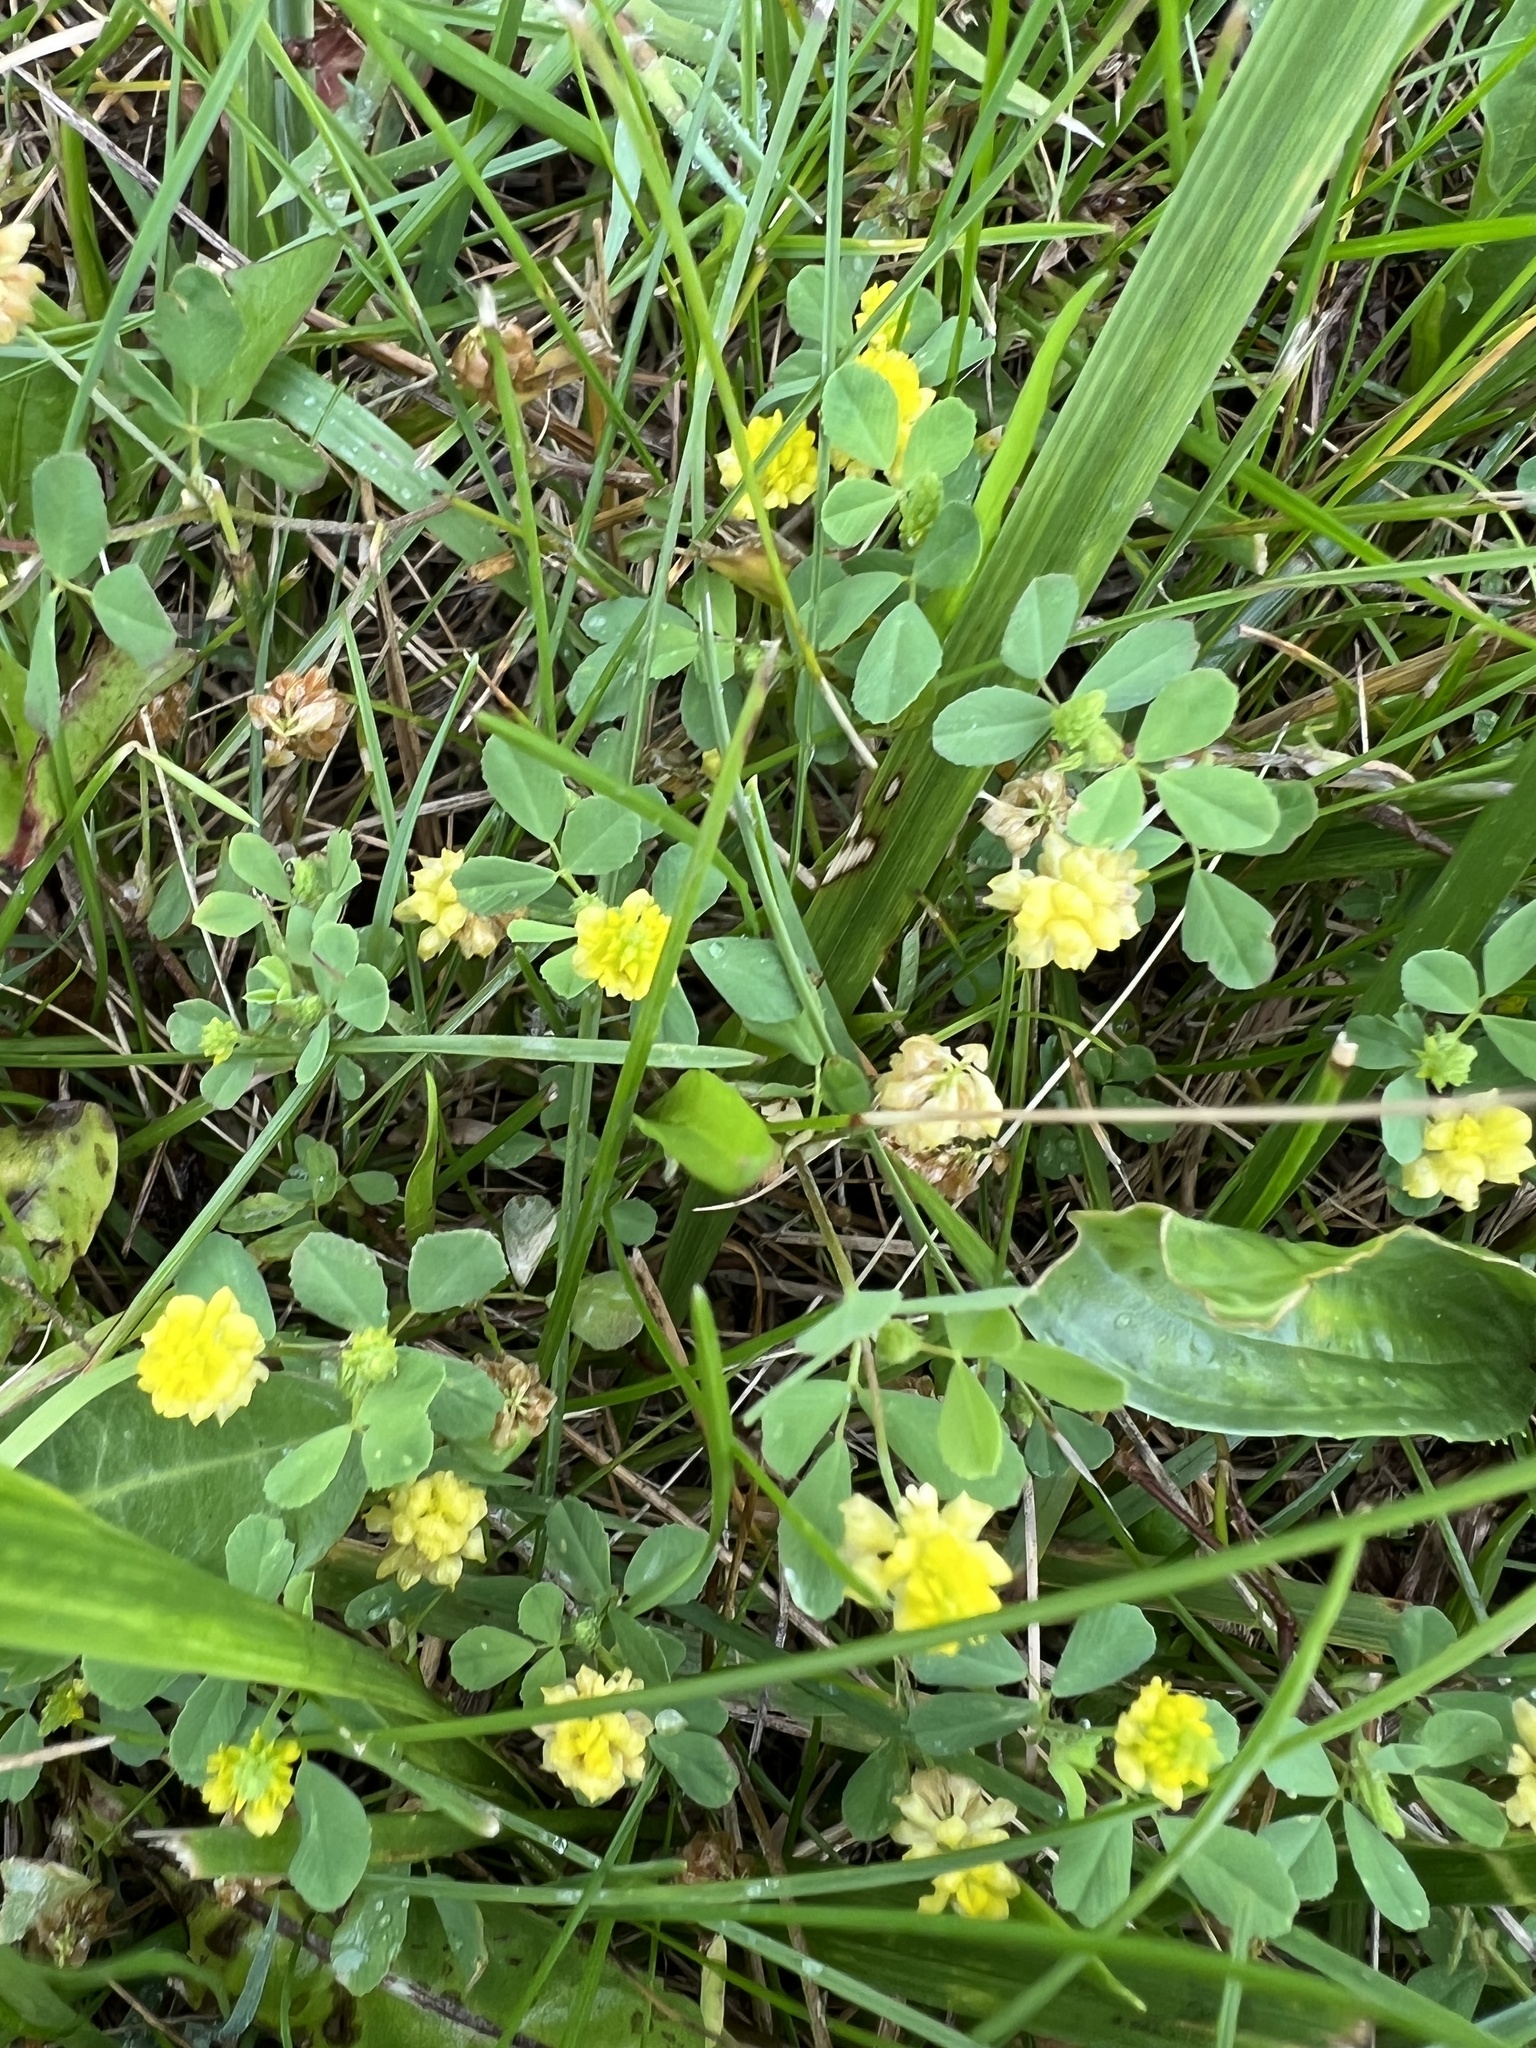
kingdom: Plantae
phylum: Tracheophyta
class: Magnoliopsida
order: Fabales
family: Fabaceae
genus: Trifolium
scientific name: Trifolium campestre
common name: Field clover
